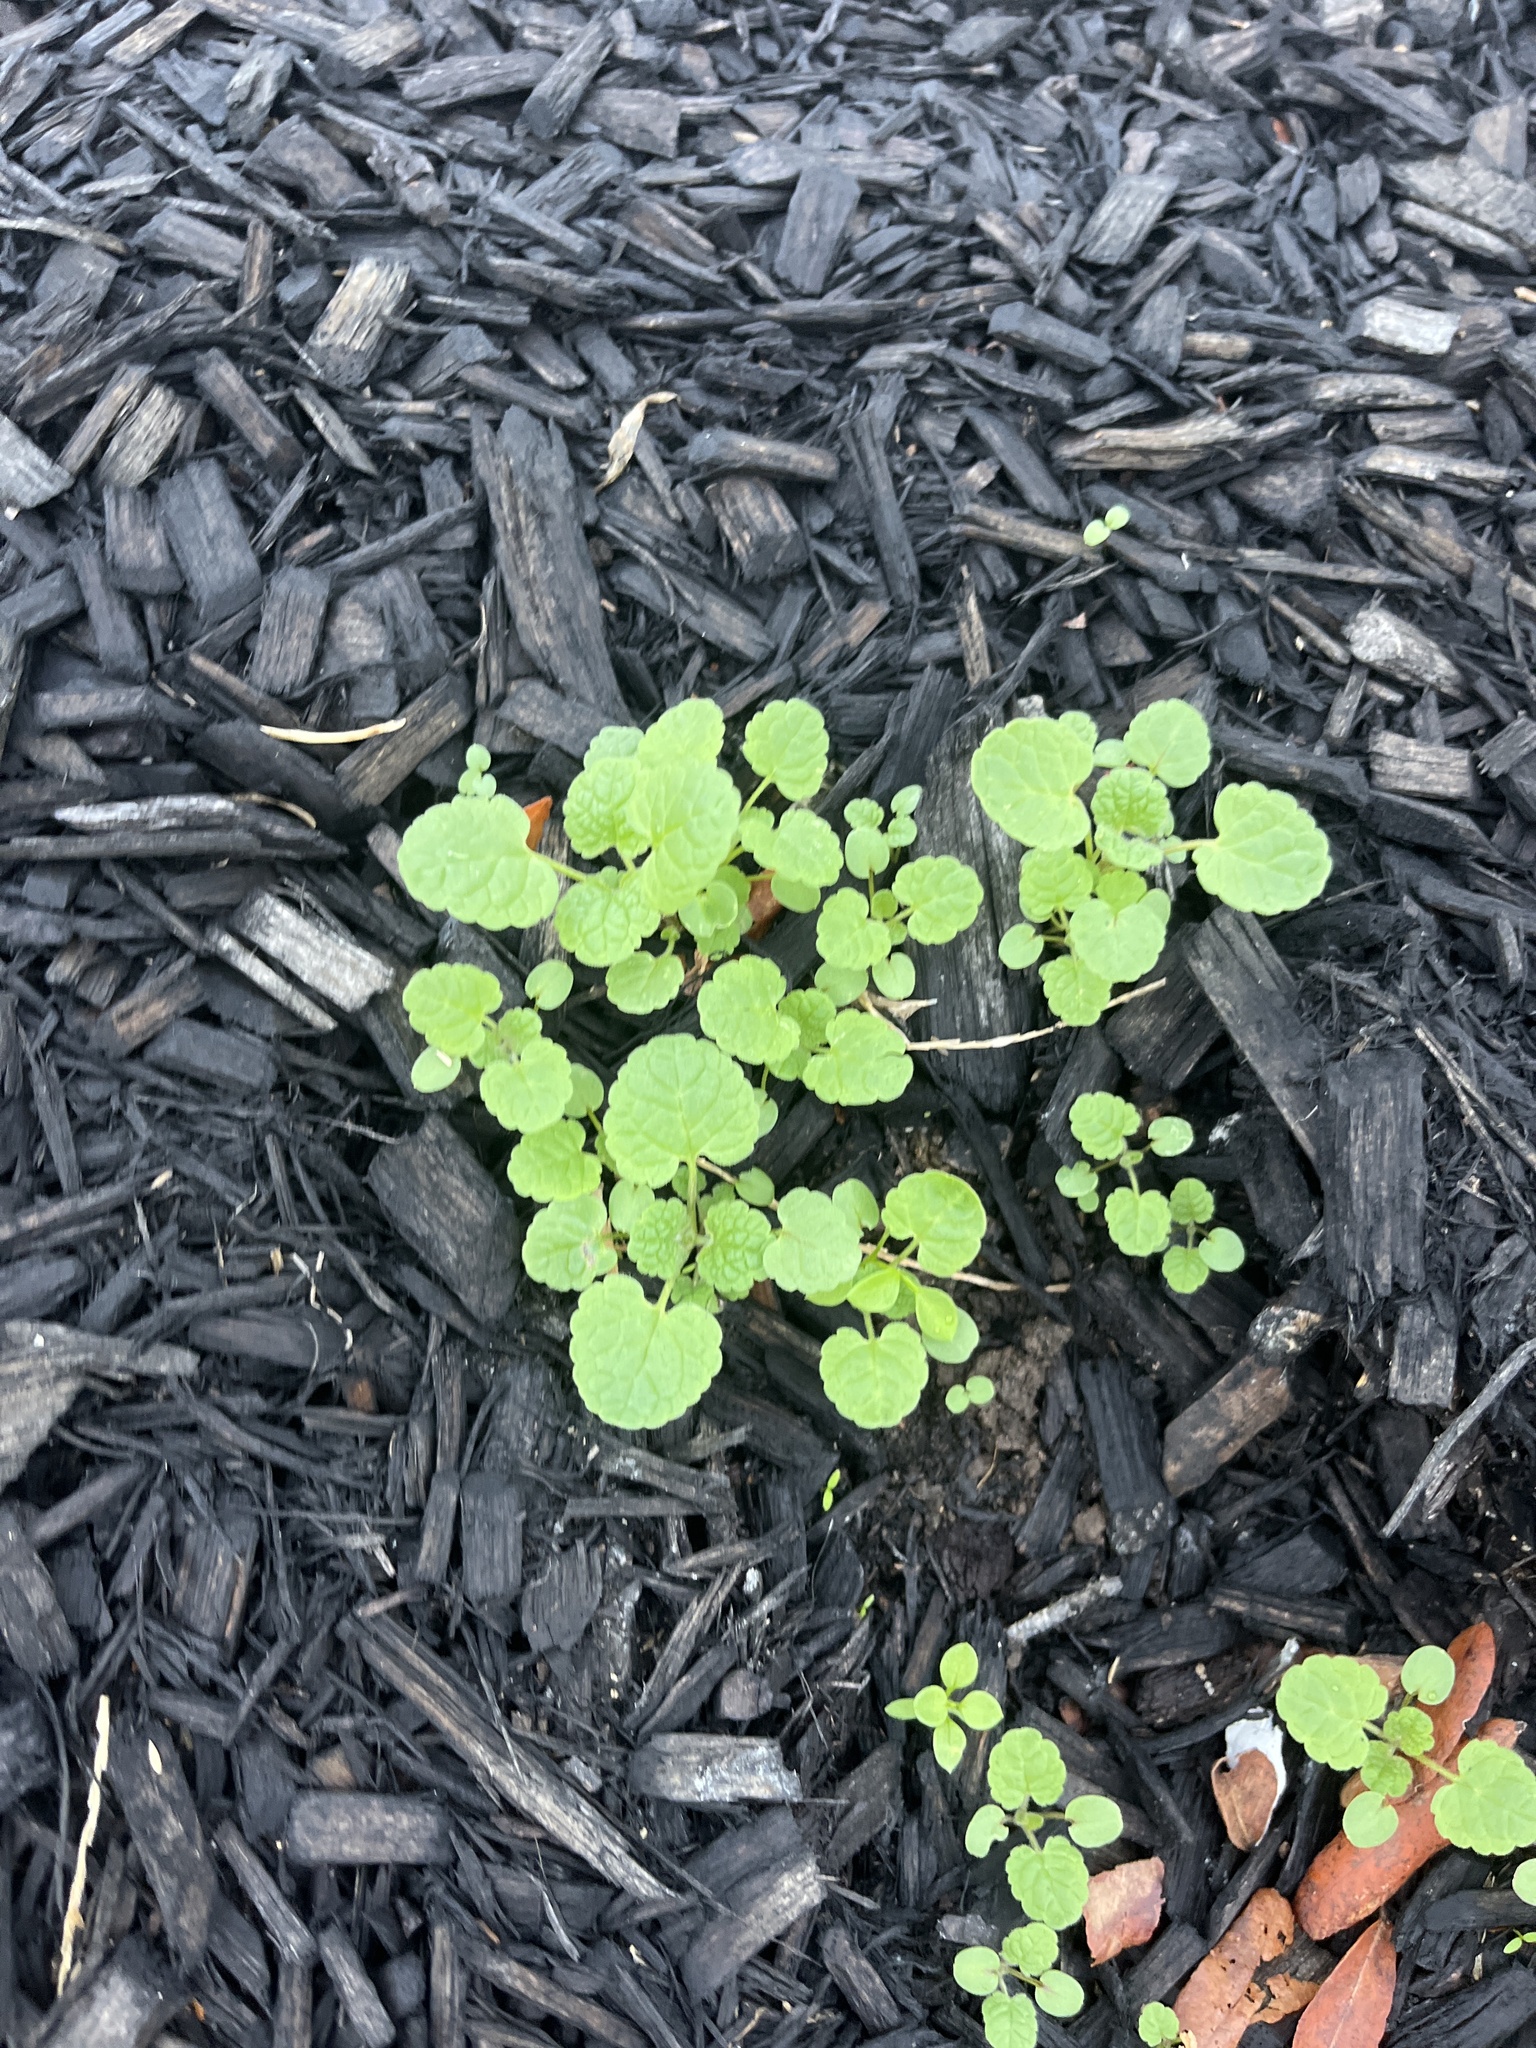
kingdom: Plantae
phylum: Tracheophyta
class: Magnoliopsida
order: Lamiales
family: Lamiaceae
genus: Glechoma
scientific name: Glechoma hederacea
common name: Ground ivy
